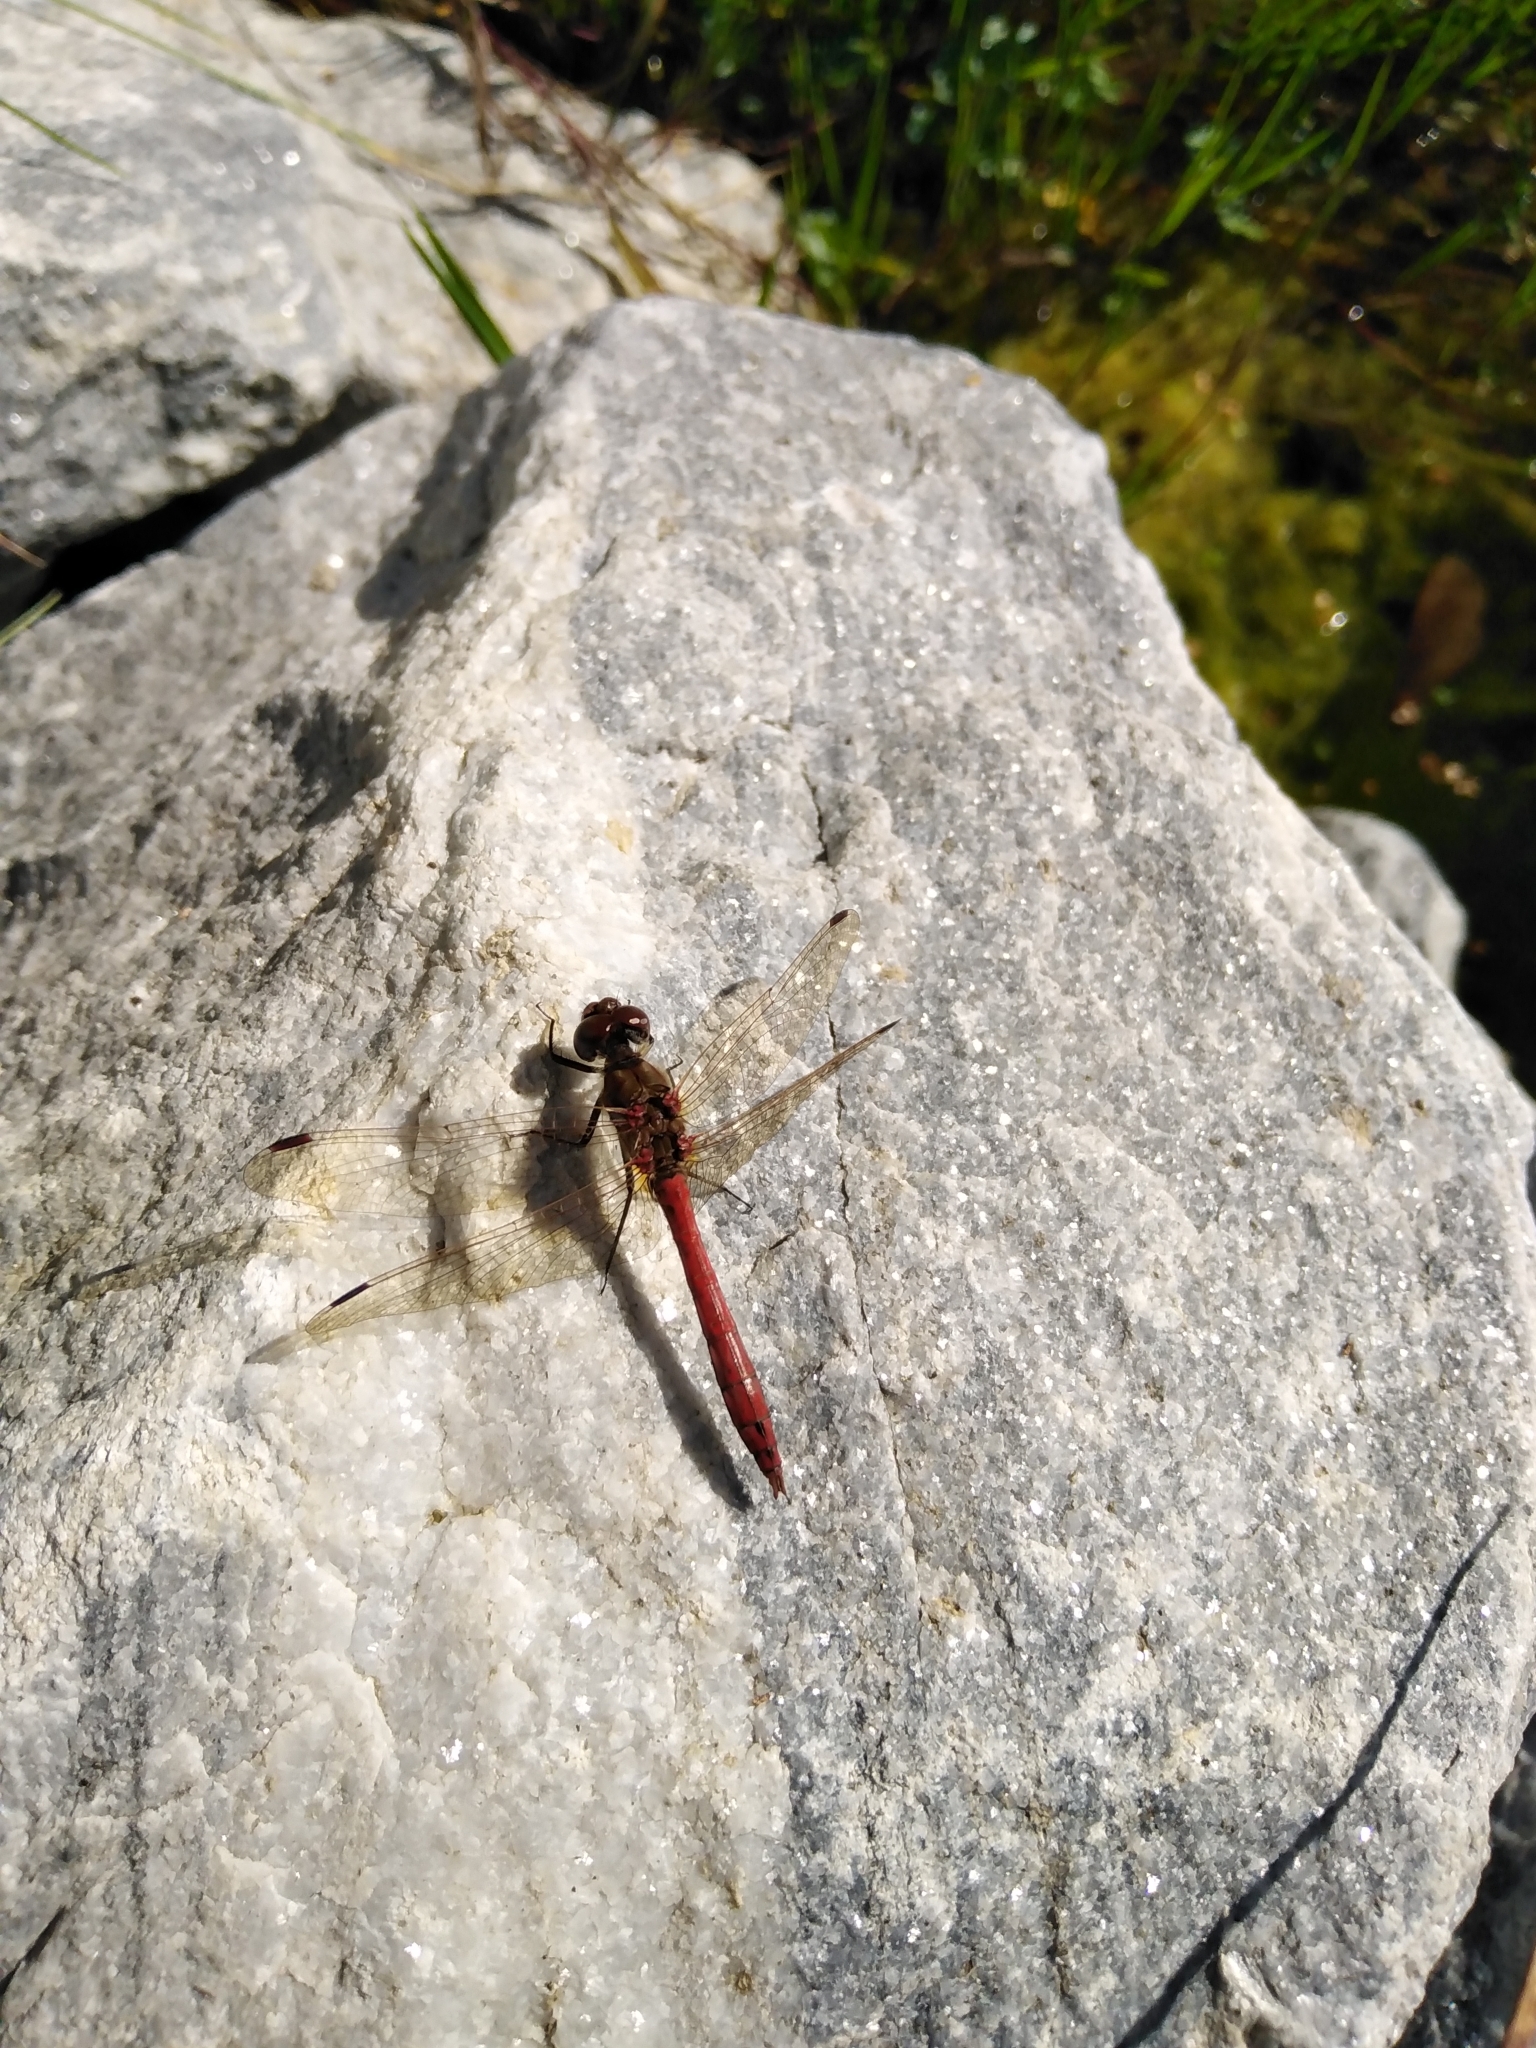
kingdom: Animalia
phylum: Arthropoda
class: Insecta
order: Odonata
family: Libellulidae
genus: Sympetrum
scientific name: Sympetrum vulgatum
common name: Vagrant darter
